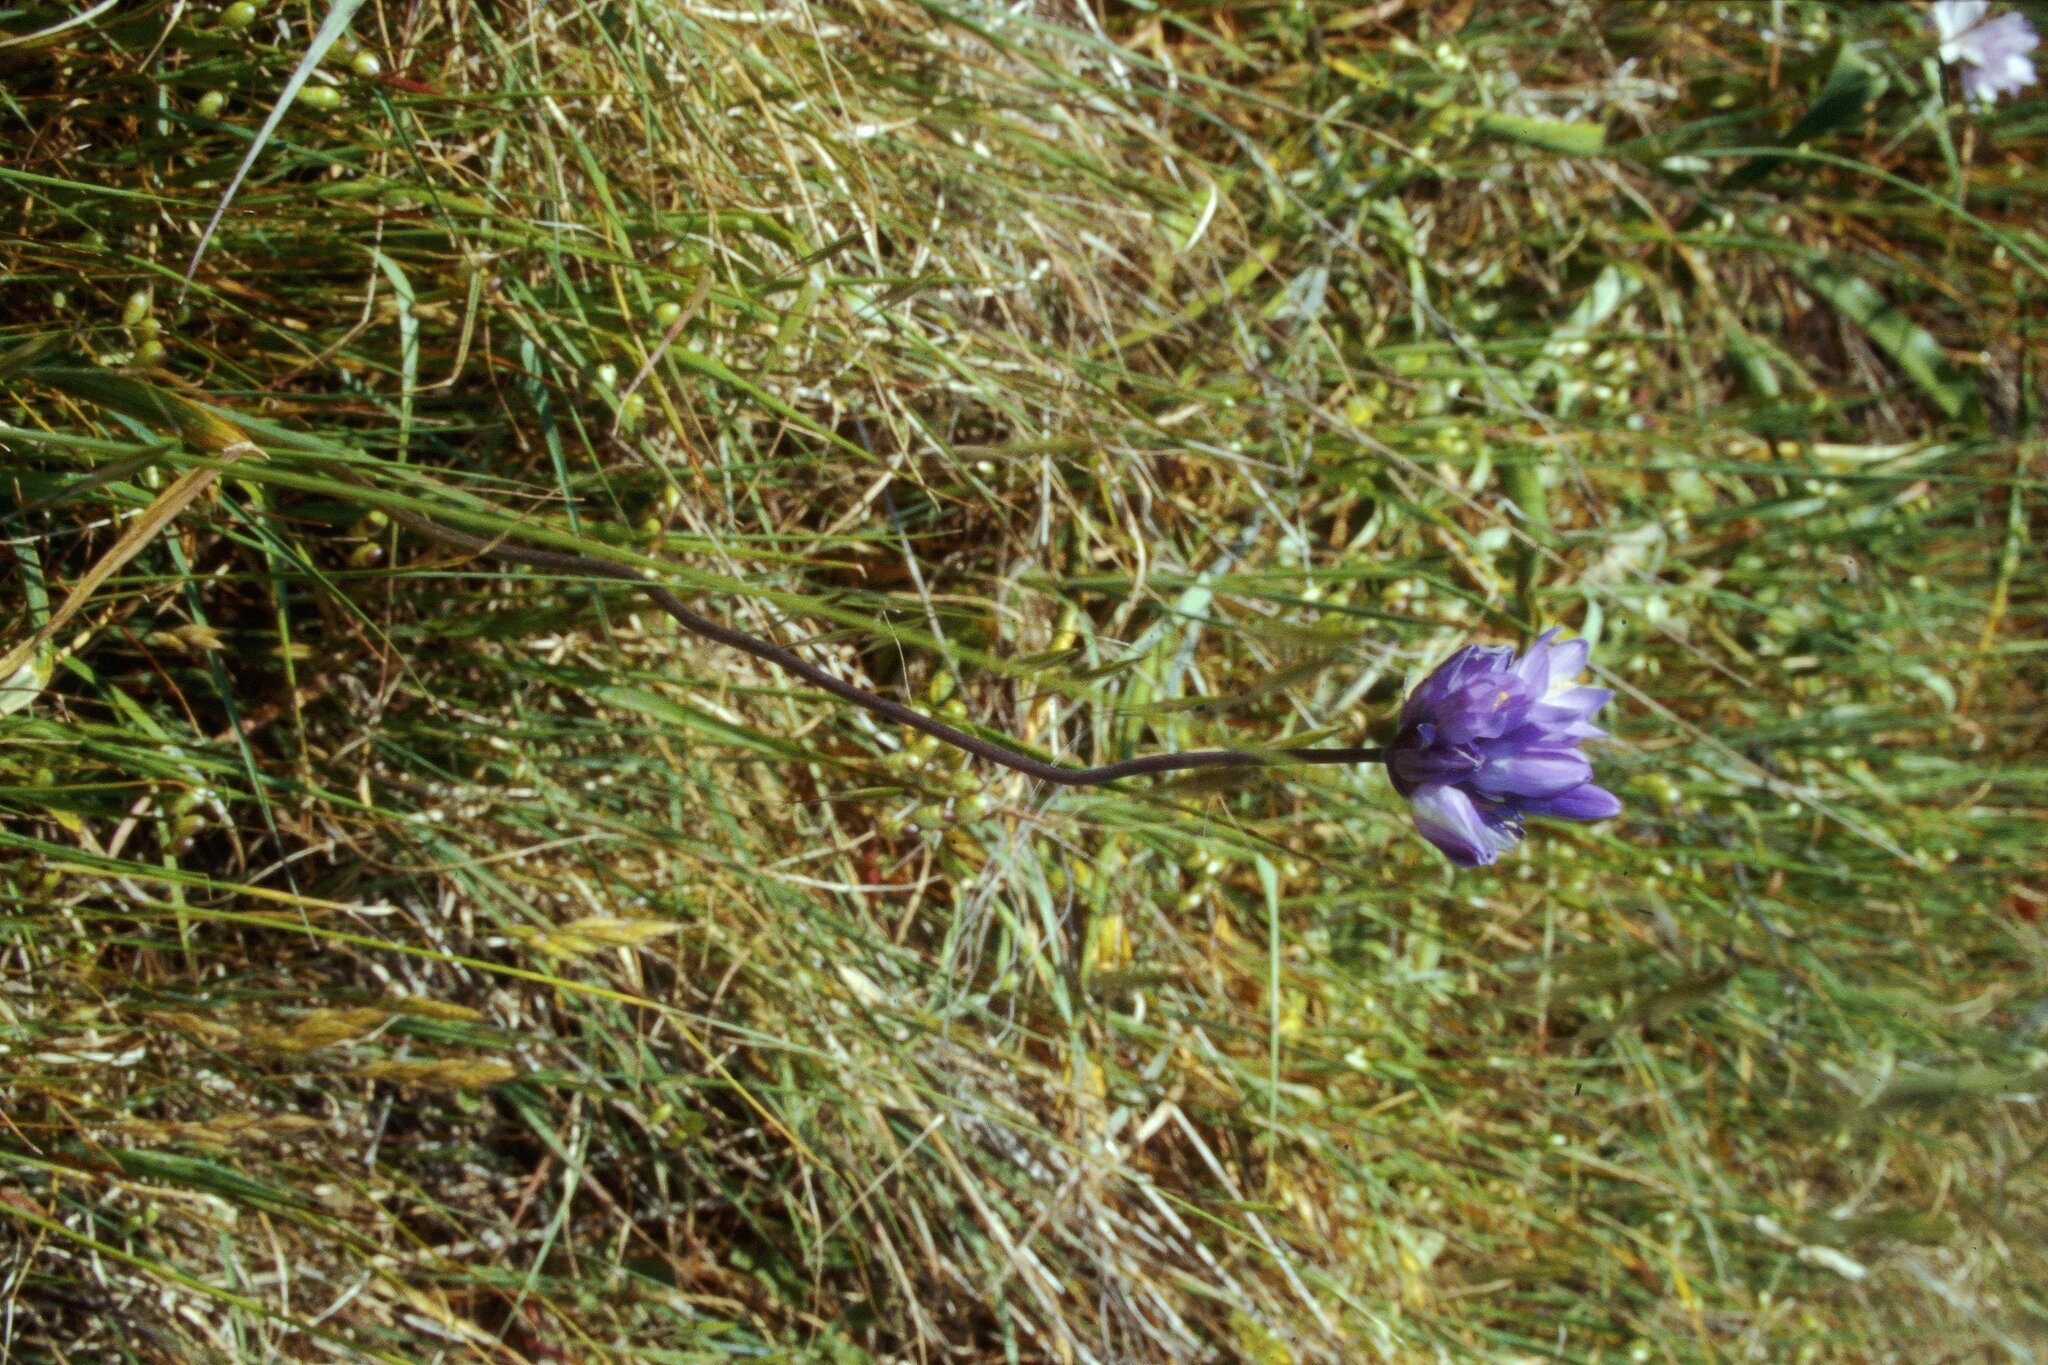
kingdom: Plantae
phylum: Tracheophyta
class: Liliopsida
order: Asparagales
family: Asparagaceae
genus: Triteleia
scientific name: Triteleia laxa
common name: Triplet-lily
